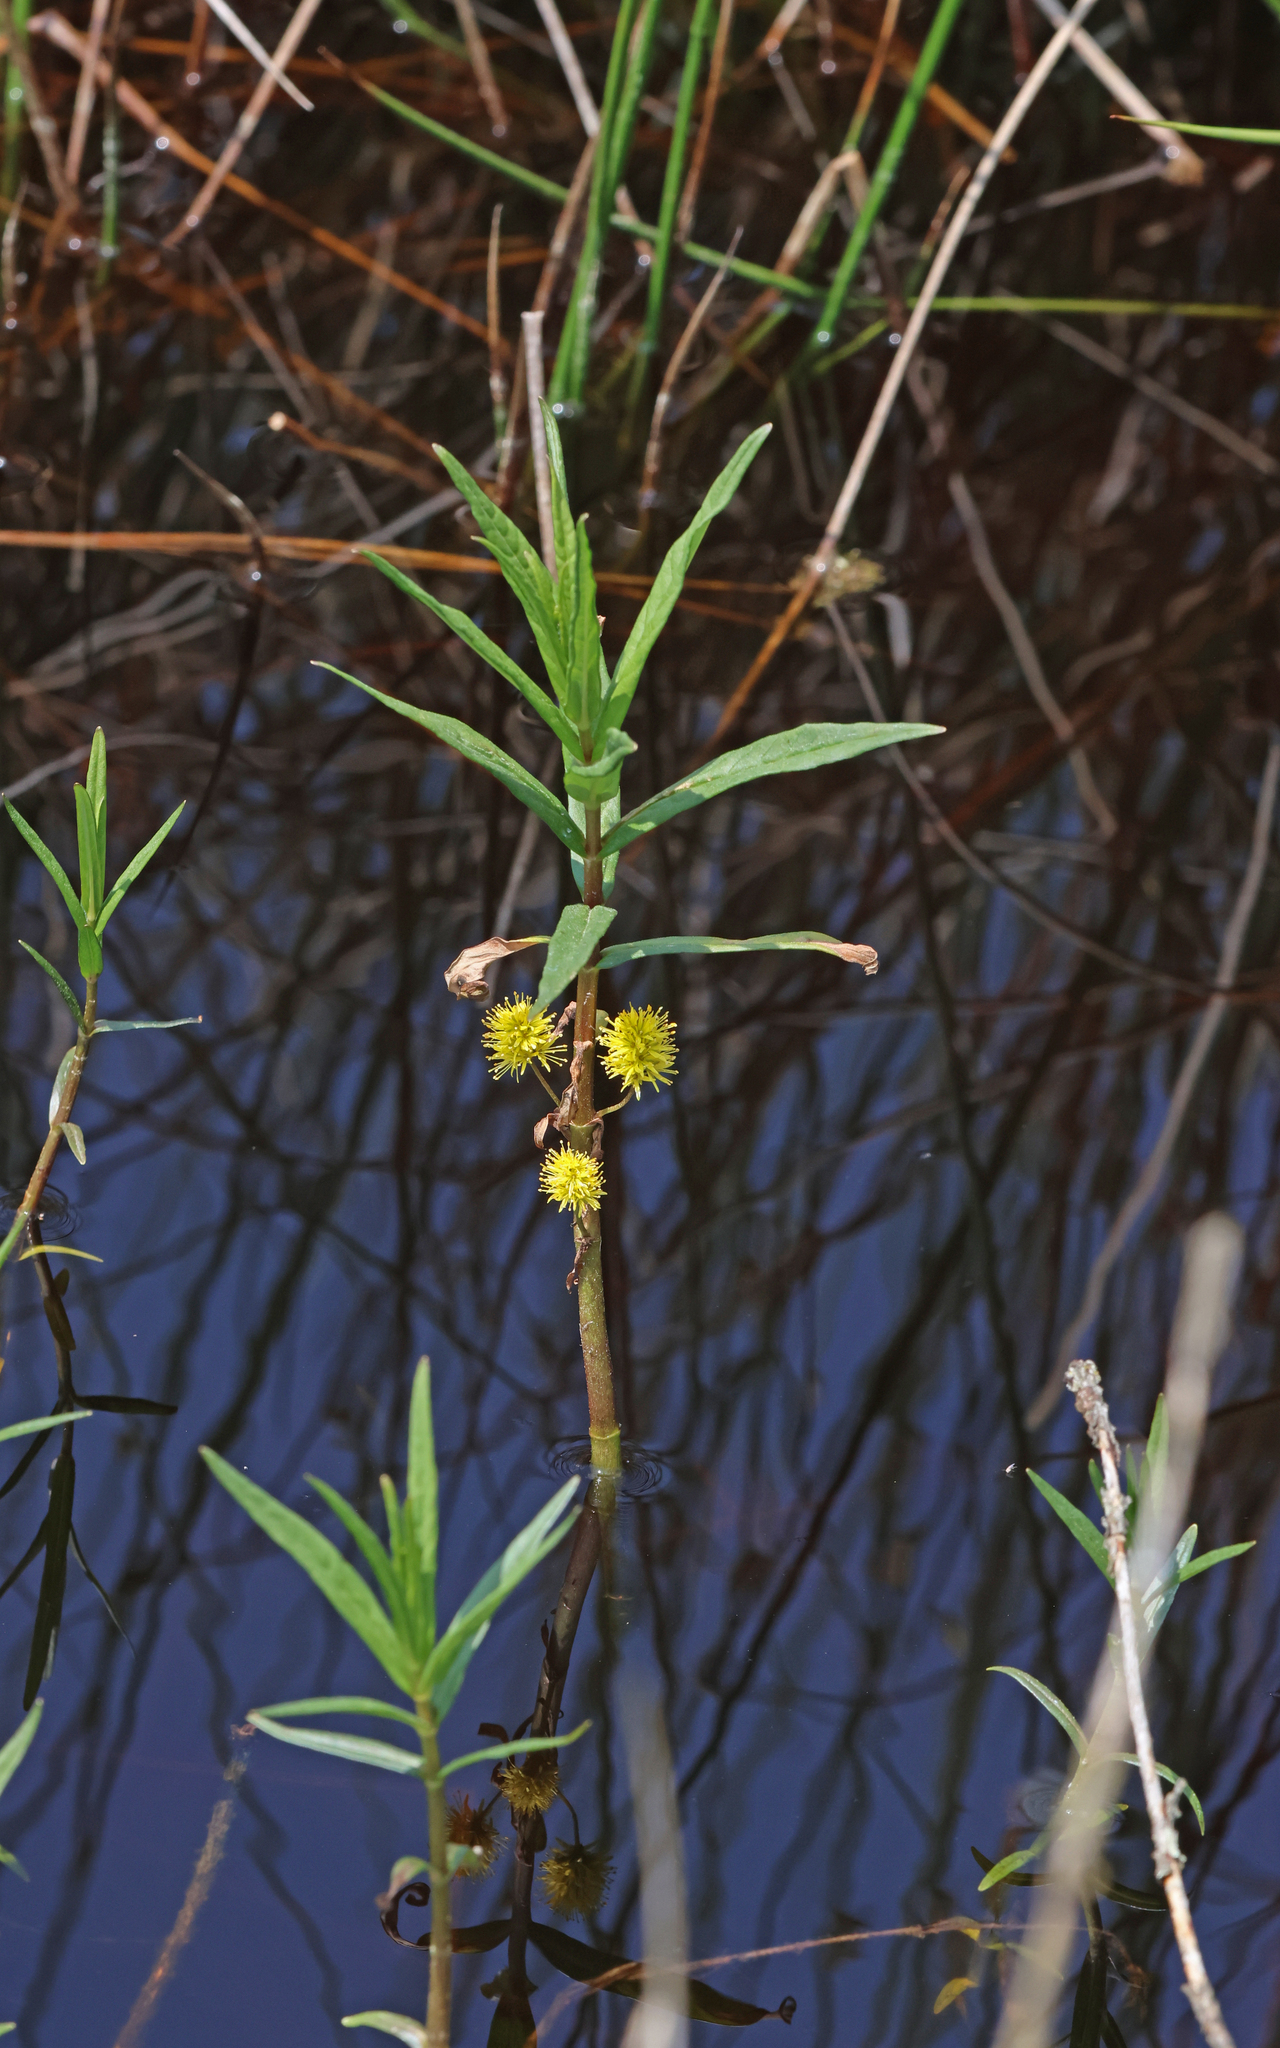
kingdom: Plantae
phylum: Tracheophyta
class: Magnoliopsida
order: Ericales
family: Primulaceae
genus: Lysimachia
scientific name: Lysimachia thyrsiflora
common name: Tufted loosestrife
